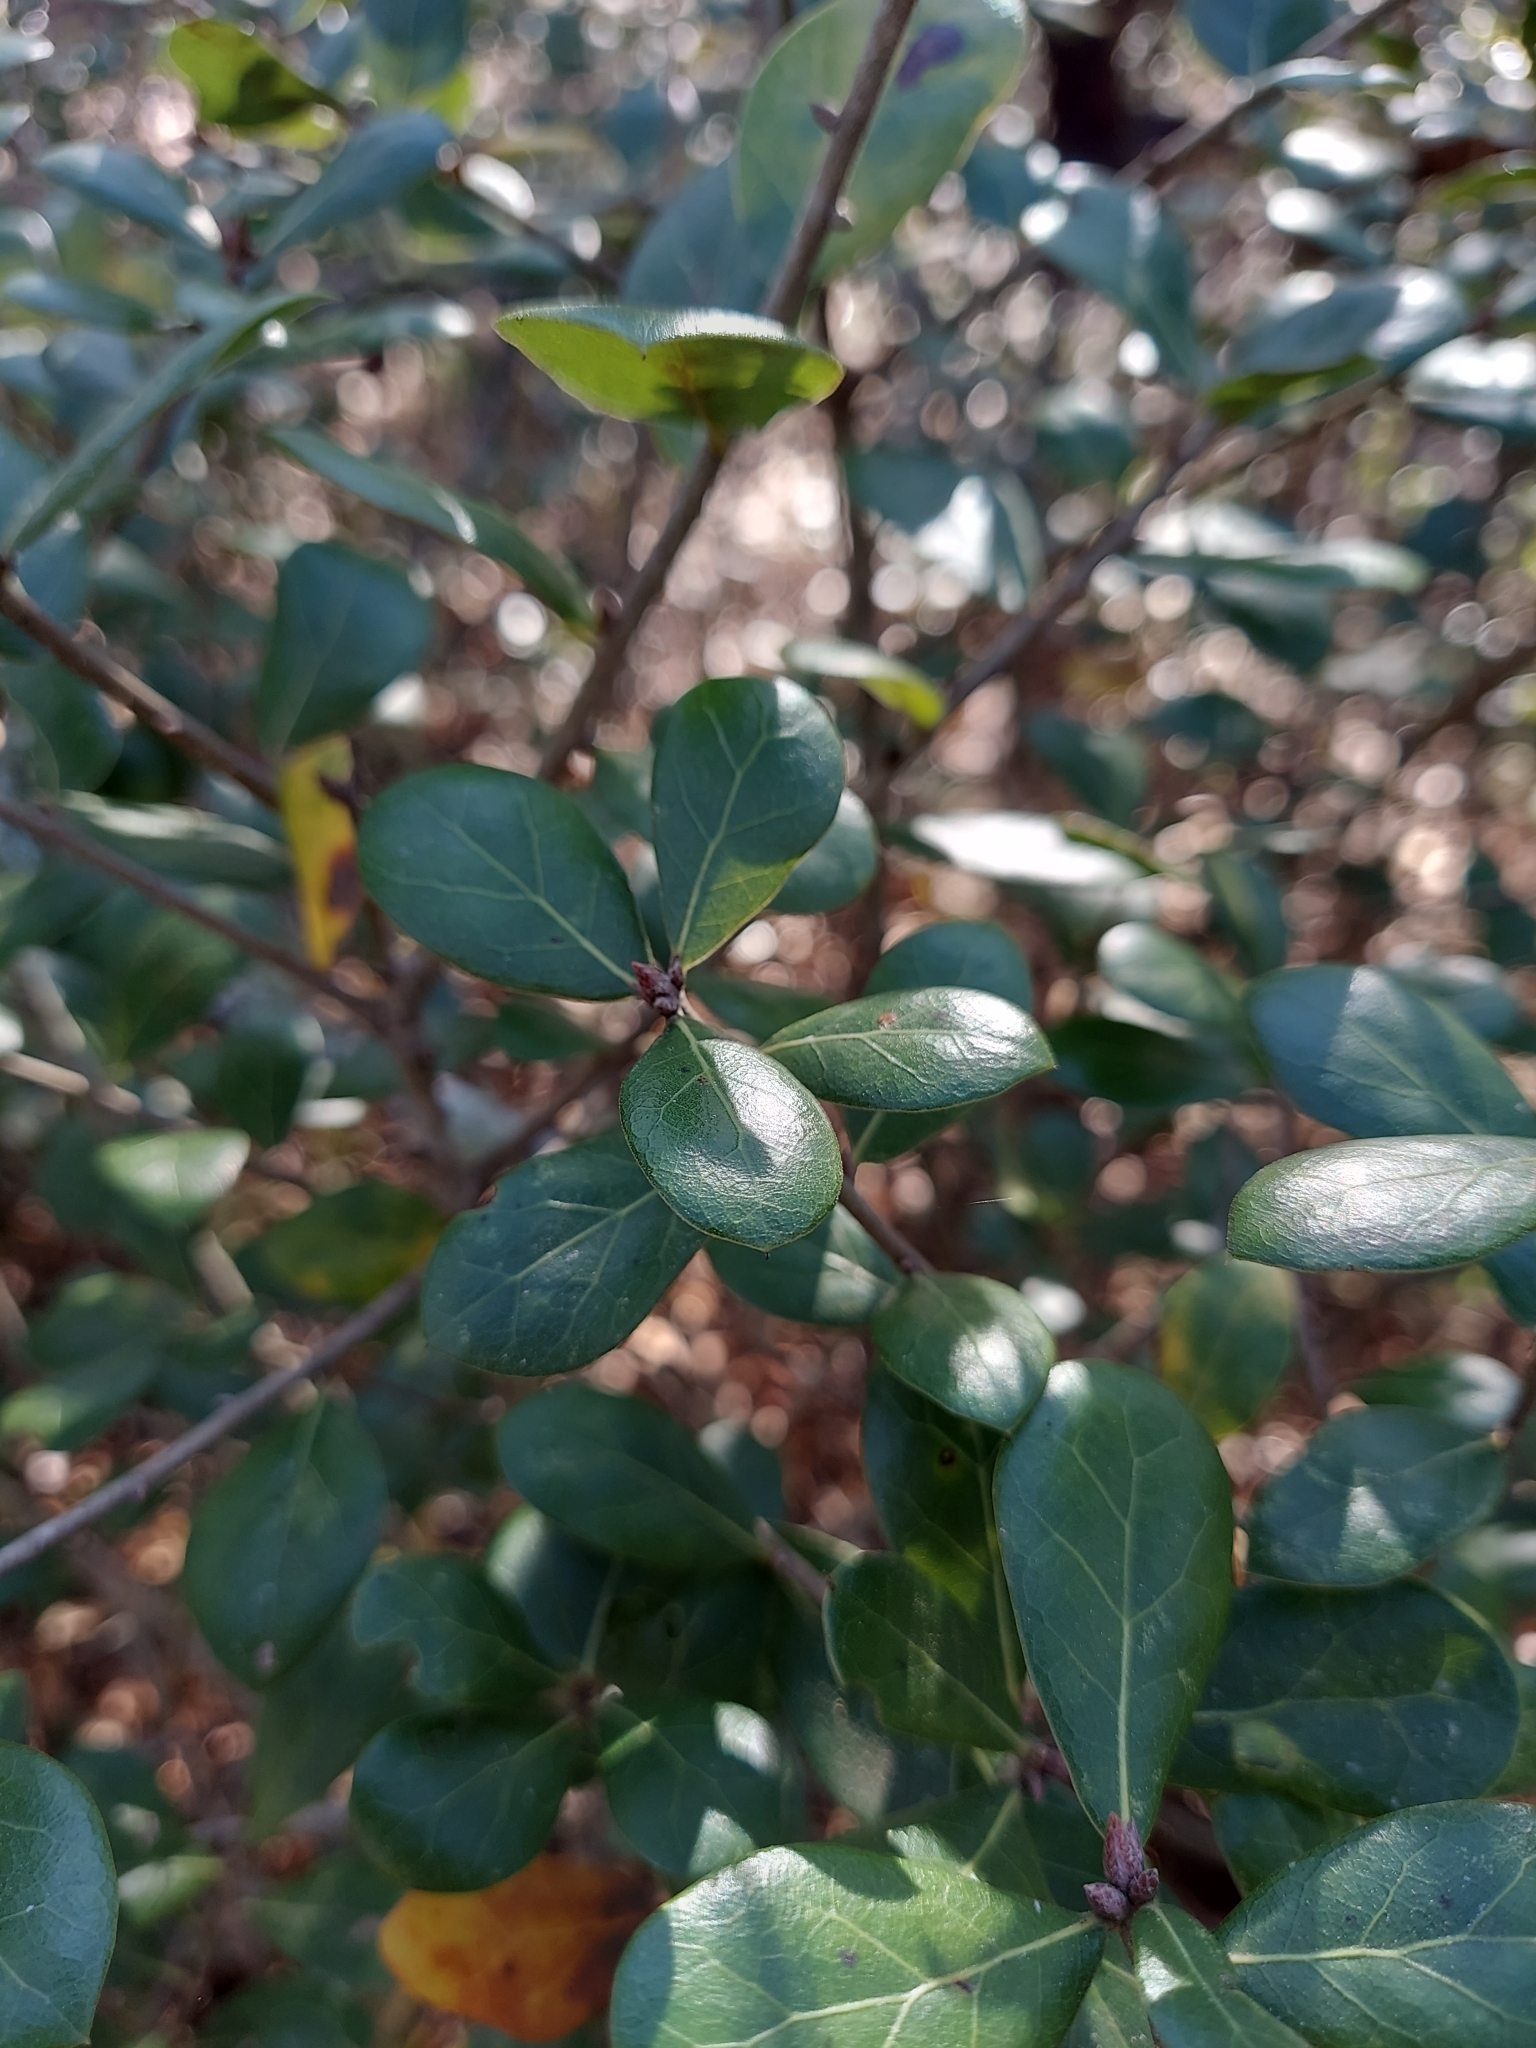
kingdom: Plantae
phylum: Tracheophyta
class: Magnoliopsida
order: Fagales
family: Fagaceae
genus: Quercus
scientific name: Quercus myrtifolia
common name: Myrtle oak
